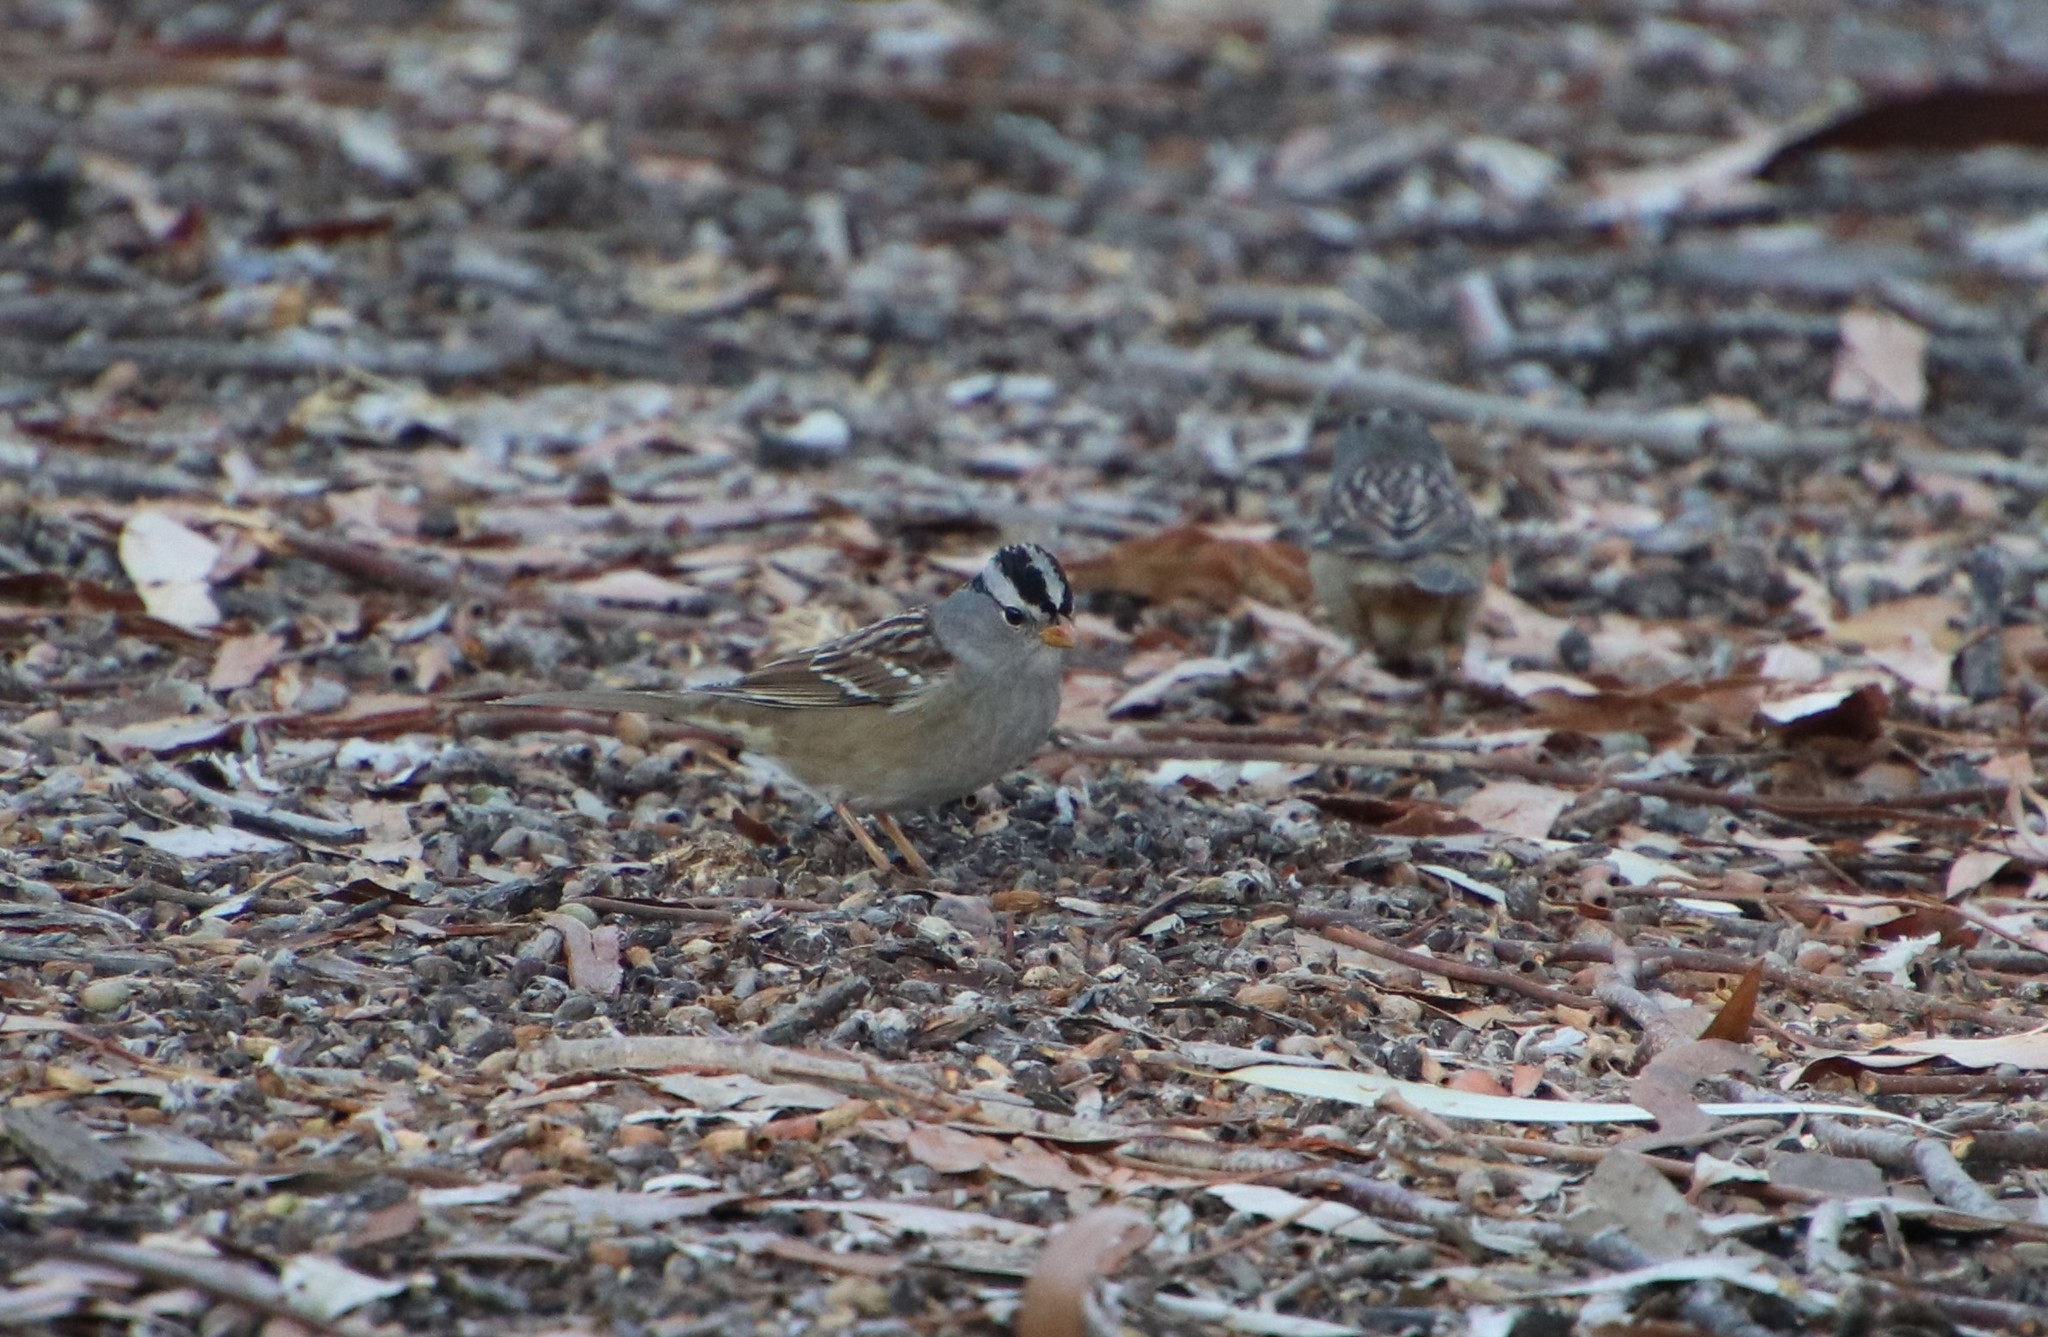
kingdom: Animalia
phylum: Chordata
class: Aves
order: Passeriformes
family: Passerellidae
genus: Zonotrichia
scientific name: Zonotrichia leucophrys
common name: White-crowned sparrow
